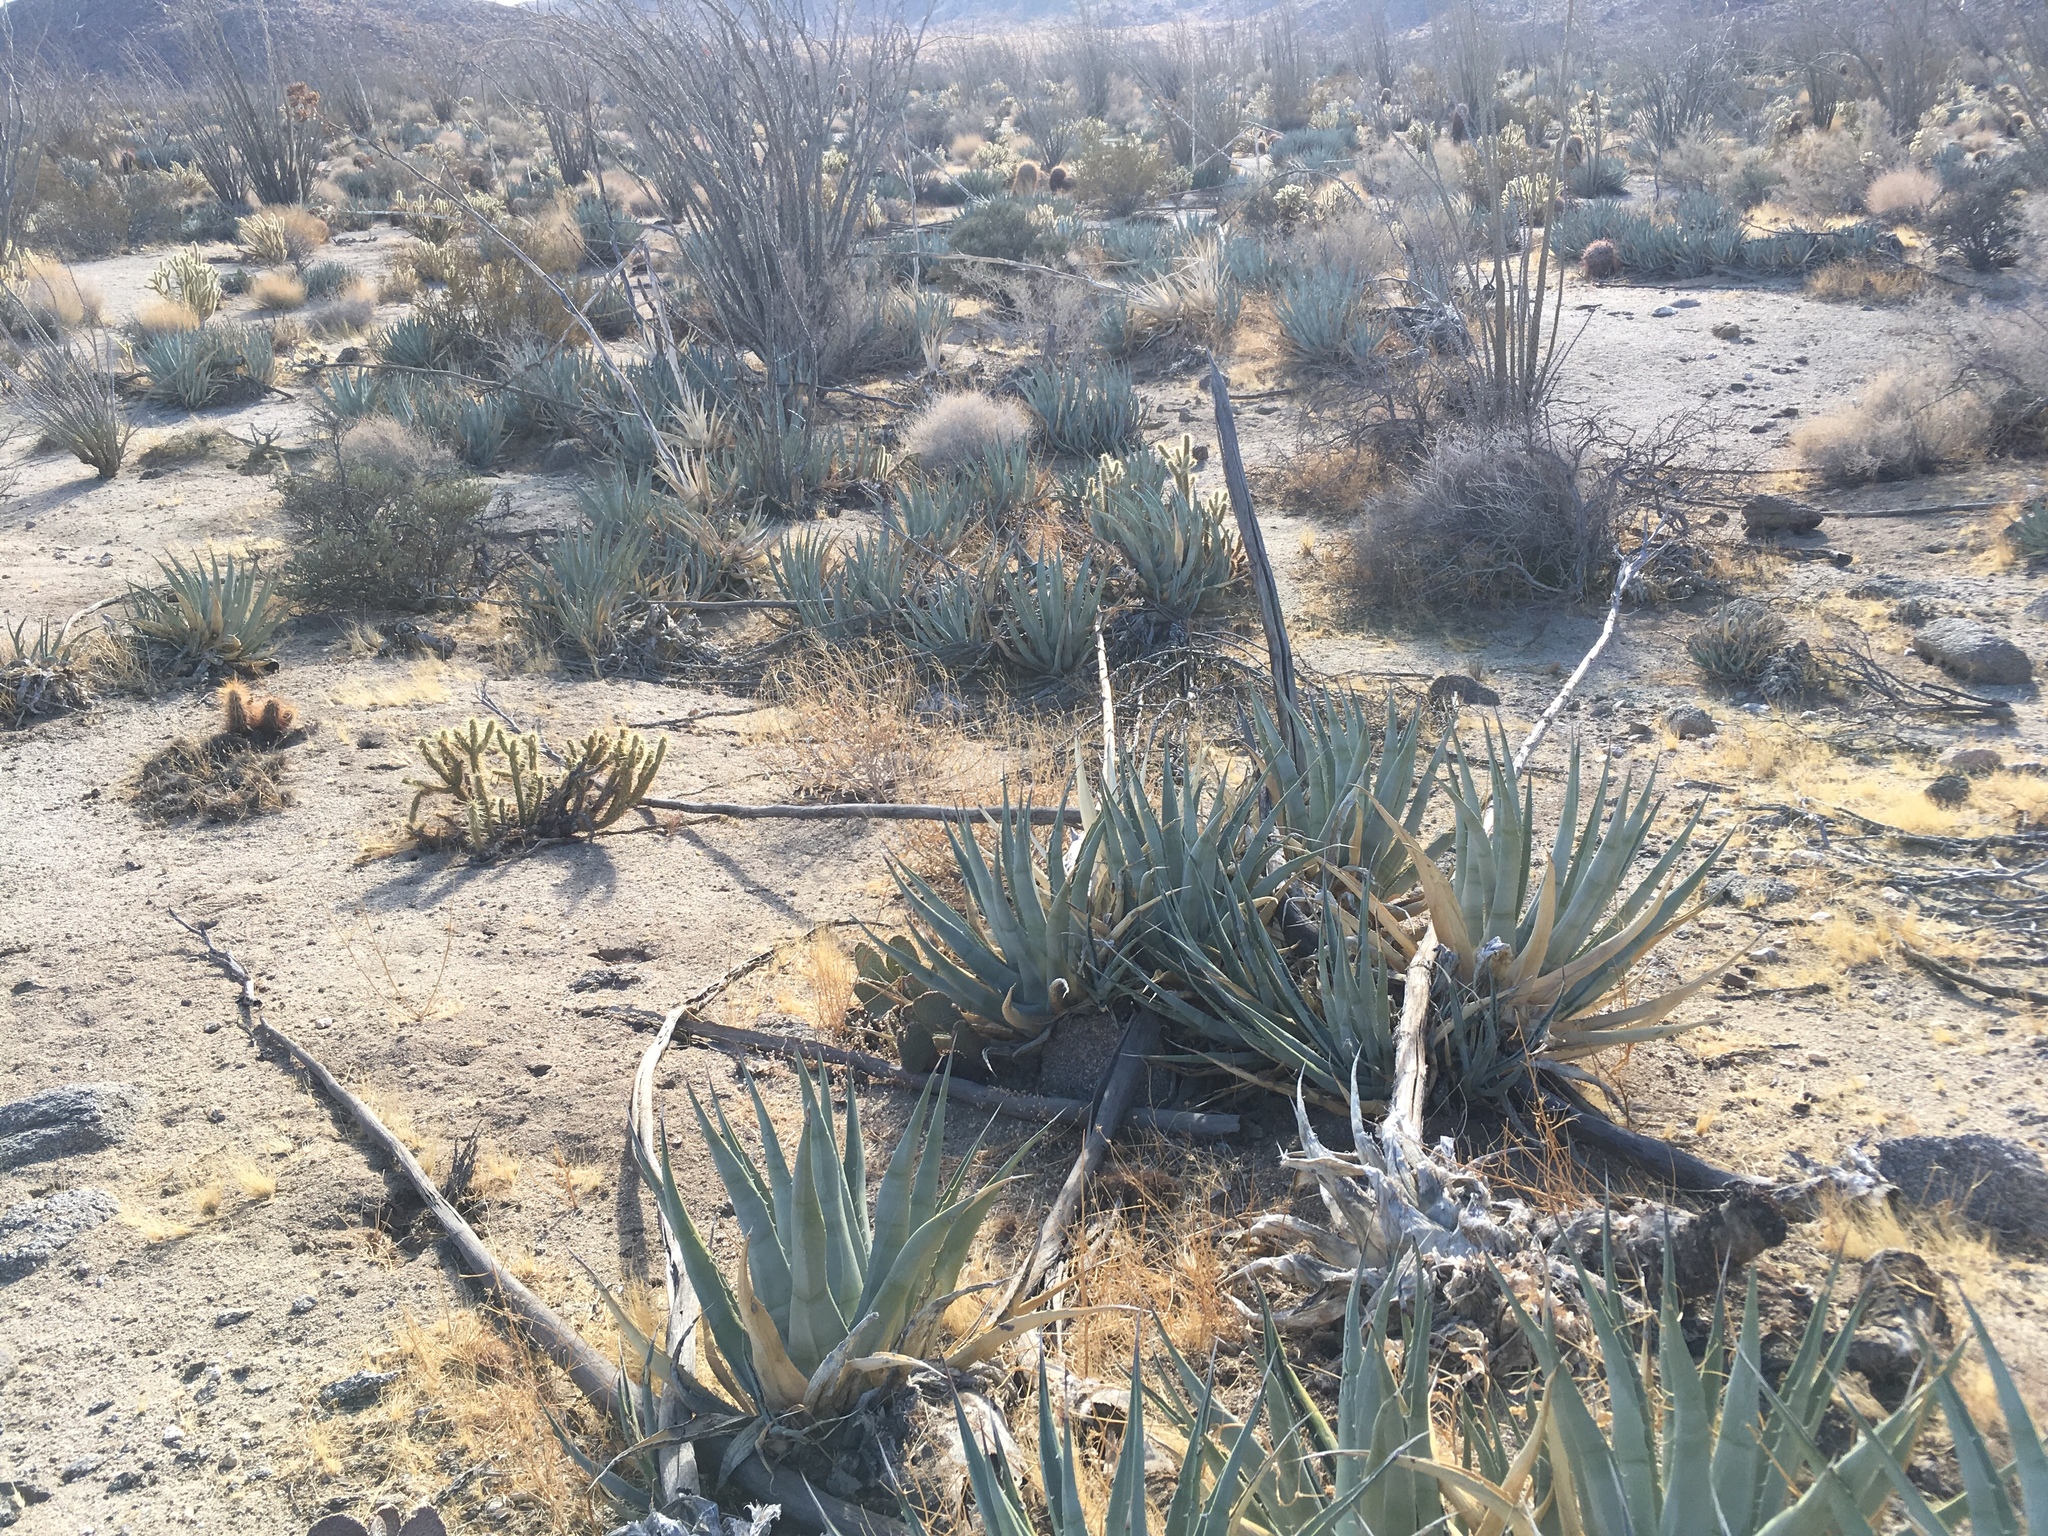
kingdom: Plantae
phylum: Tracheophyta
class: Liliopsida
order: Asparagales
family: Asparagaceae
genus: Agave
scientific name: Agave deserti
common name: Desert agave
